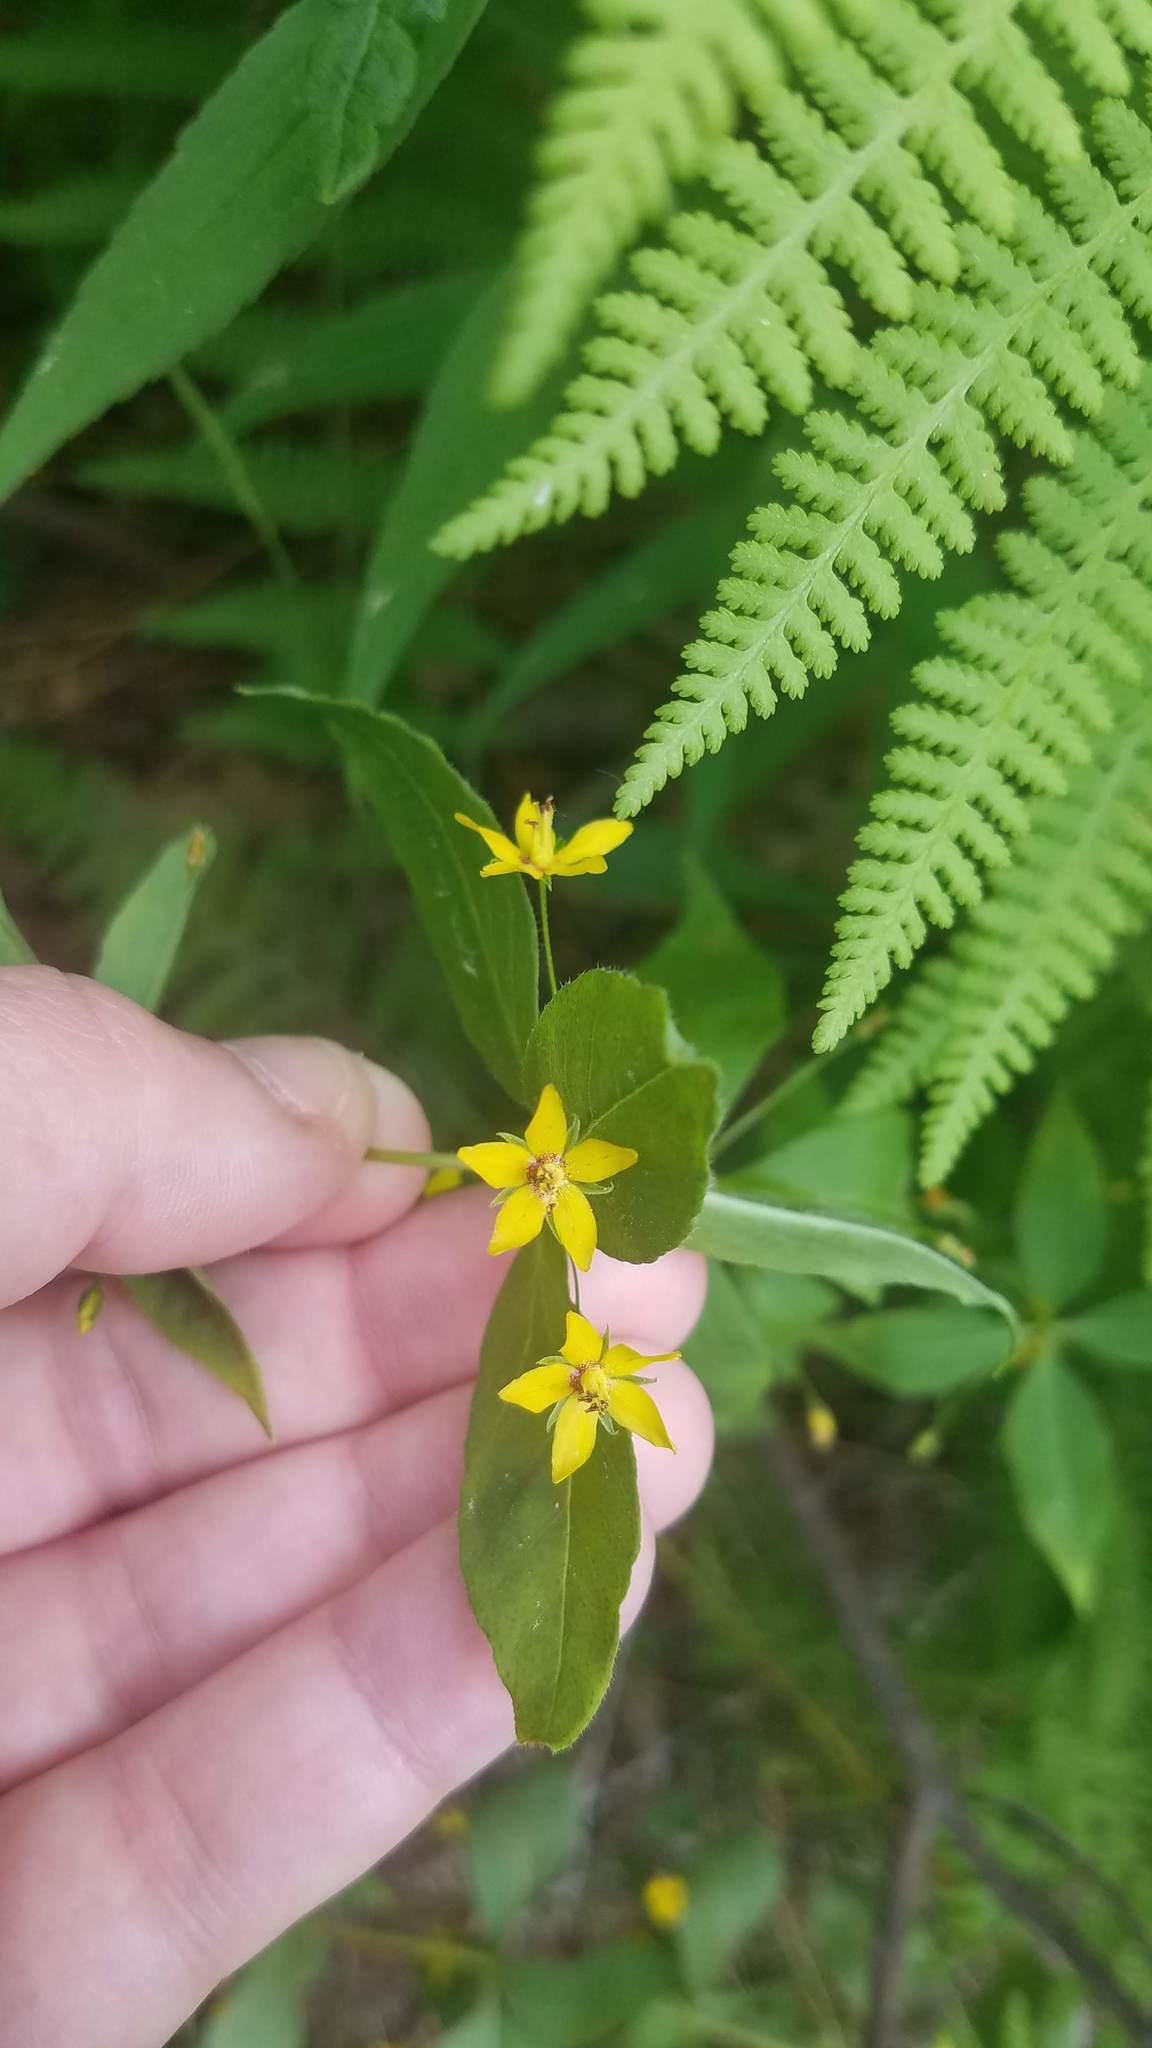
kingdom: Plantae
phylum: Tracheophyta
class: Magnoliopsida
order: Ericales
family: Primulaceae
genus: Lysimachia
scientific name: Lysimachia quadrifolia
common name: Whorled loosestrife
